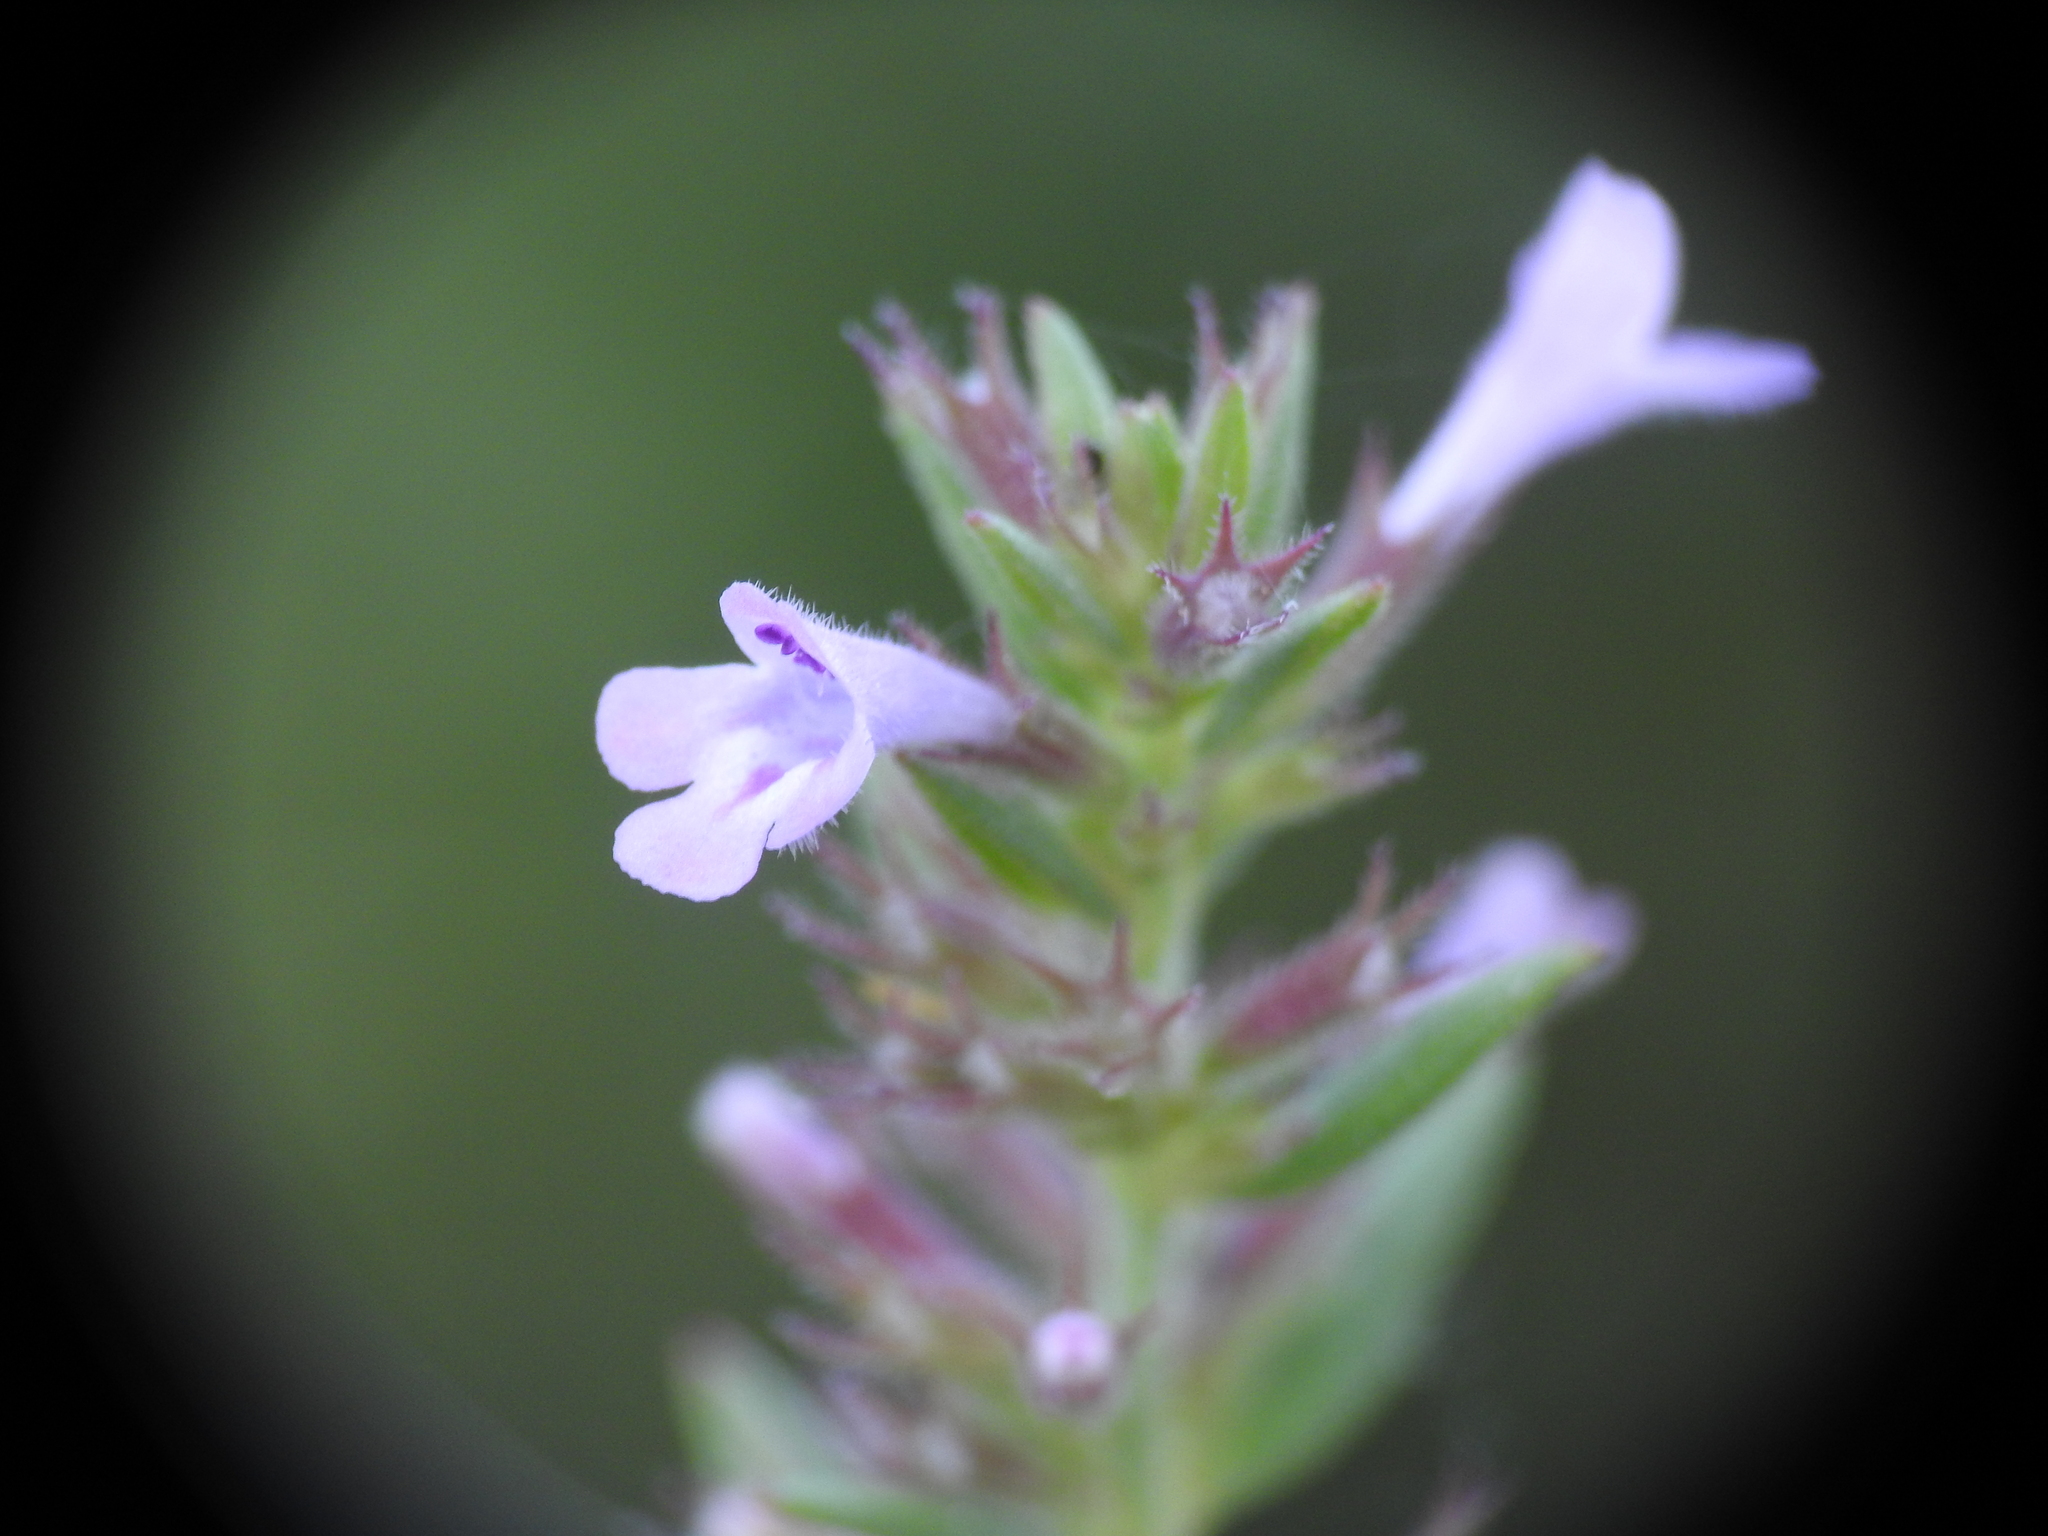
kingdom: Plantae
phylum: Tracheophyta
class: Magnoliopsida
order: Lamiales
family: Lamiaceae
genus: Micromeria
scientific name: Micromeria graeca
